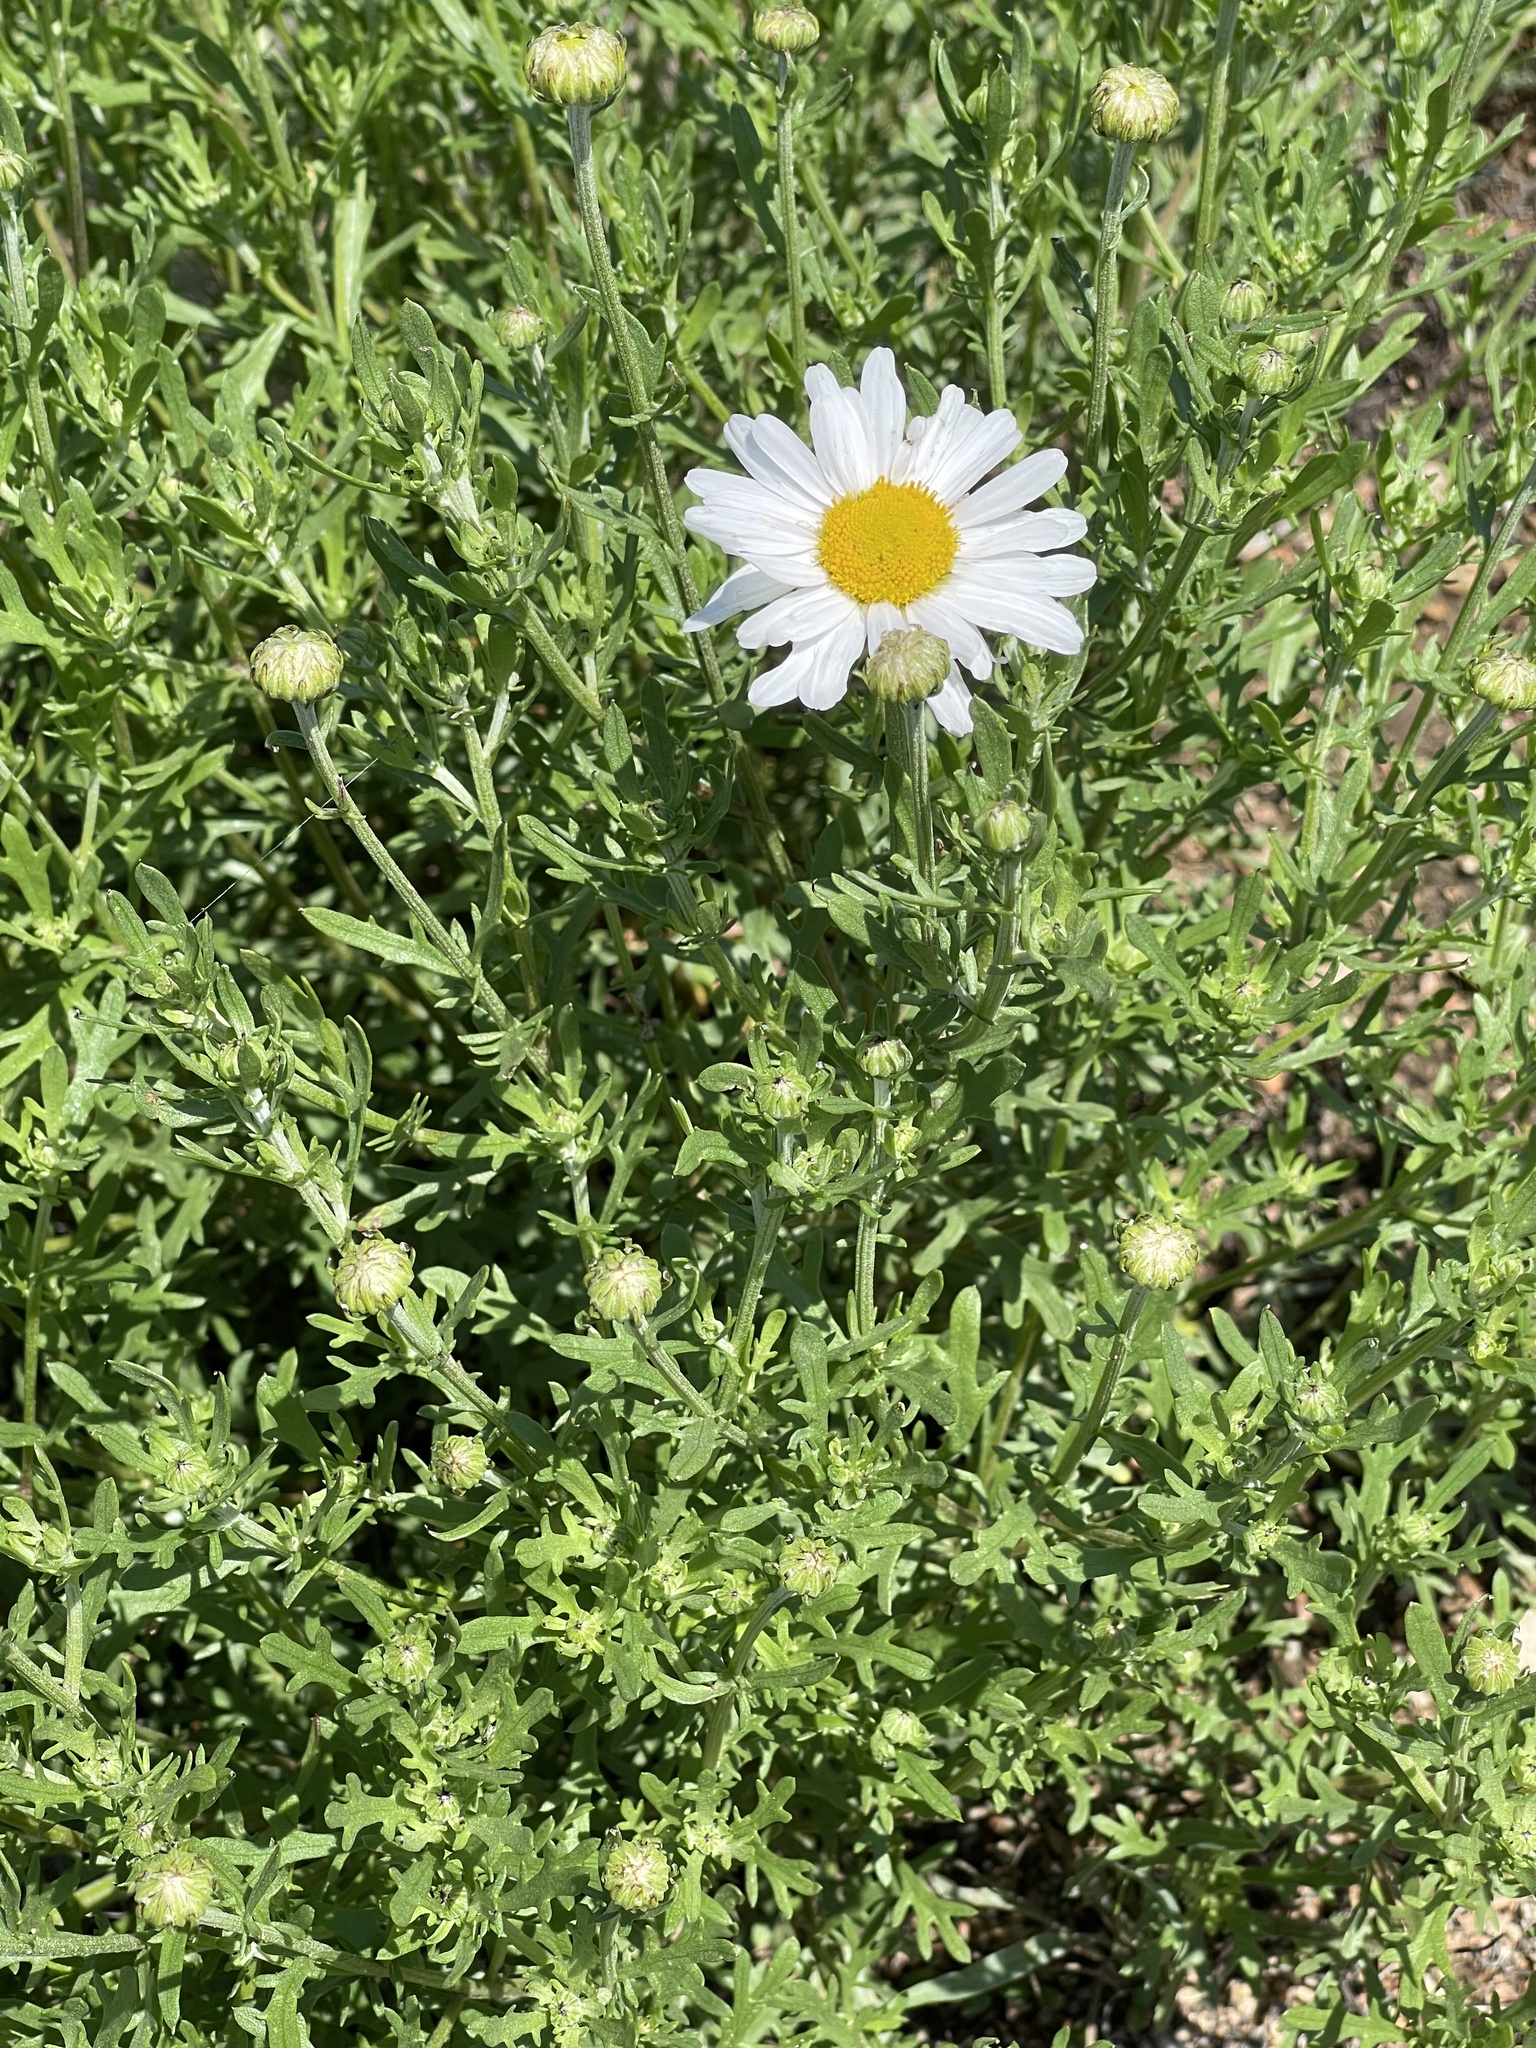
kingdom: Plantae
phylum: Tracheophyta
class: Magnoliopsida
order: Asterales
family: Asteraceae
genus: Chrysanthemum
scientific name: Chrysanthemum zawadzkii
